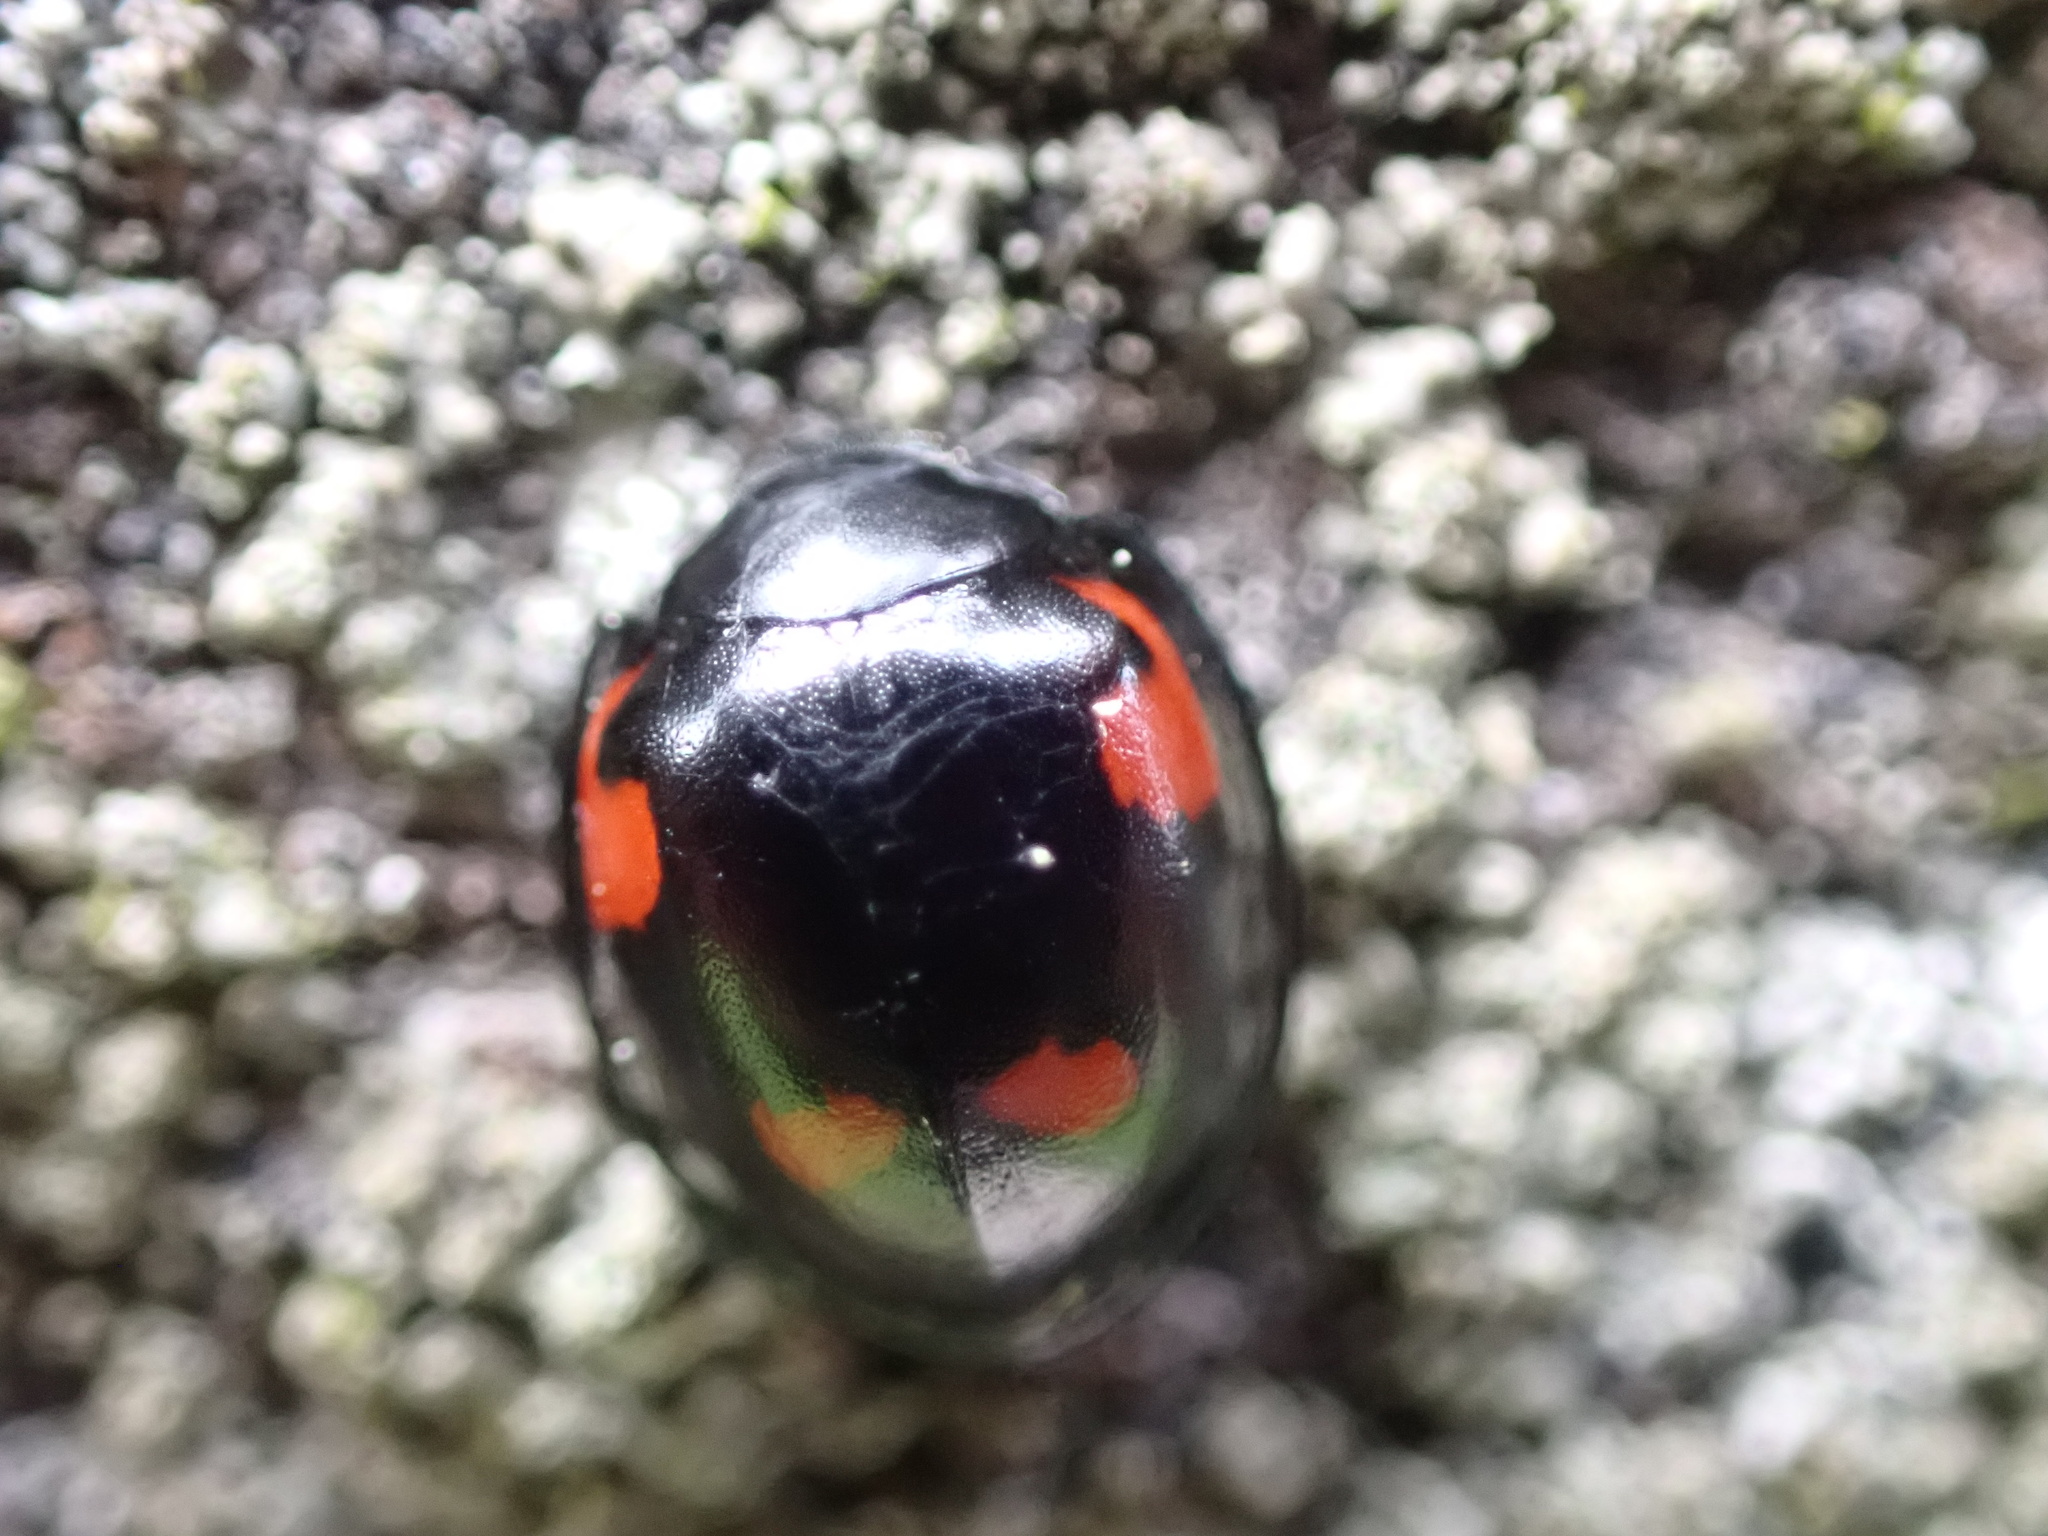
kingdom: Animalia
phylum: Arthropoda
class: Insecta
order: Coleoptera
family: Coccinellidae
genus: Brumus
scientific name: Brumus quadripustulatus
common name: Ladybird beetle
